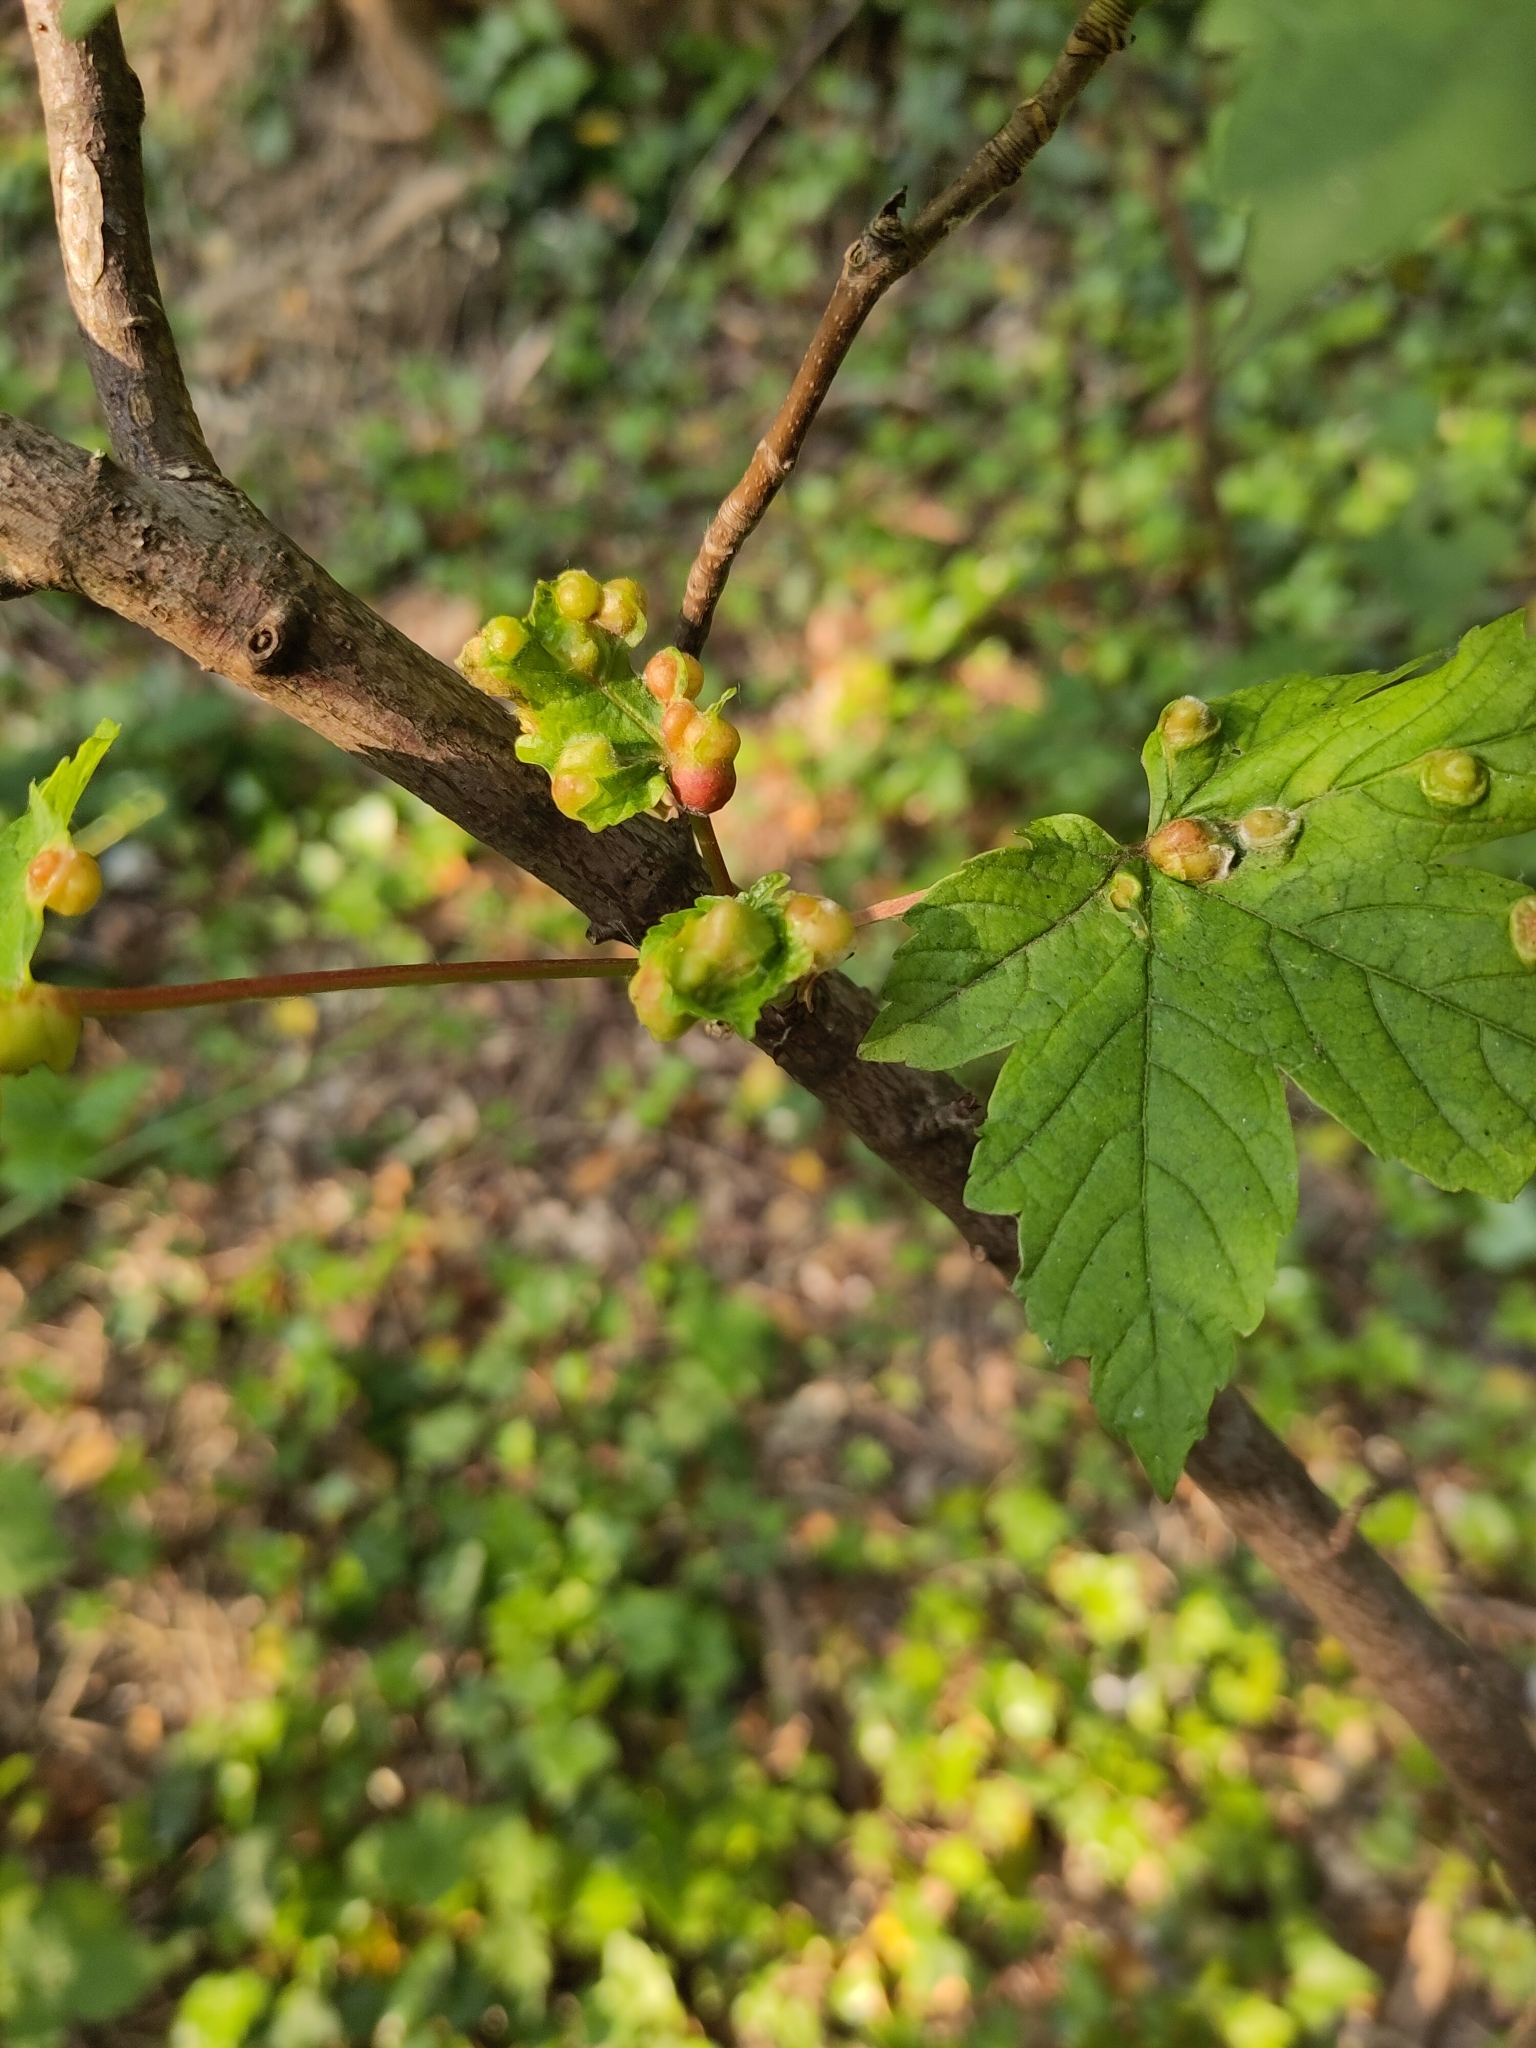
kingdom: Animalia
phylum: Arthropoda
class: Insecta
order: Hymenoptera
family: Cynipidae
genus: Pediaspis
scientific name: Pediaspis aceris
